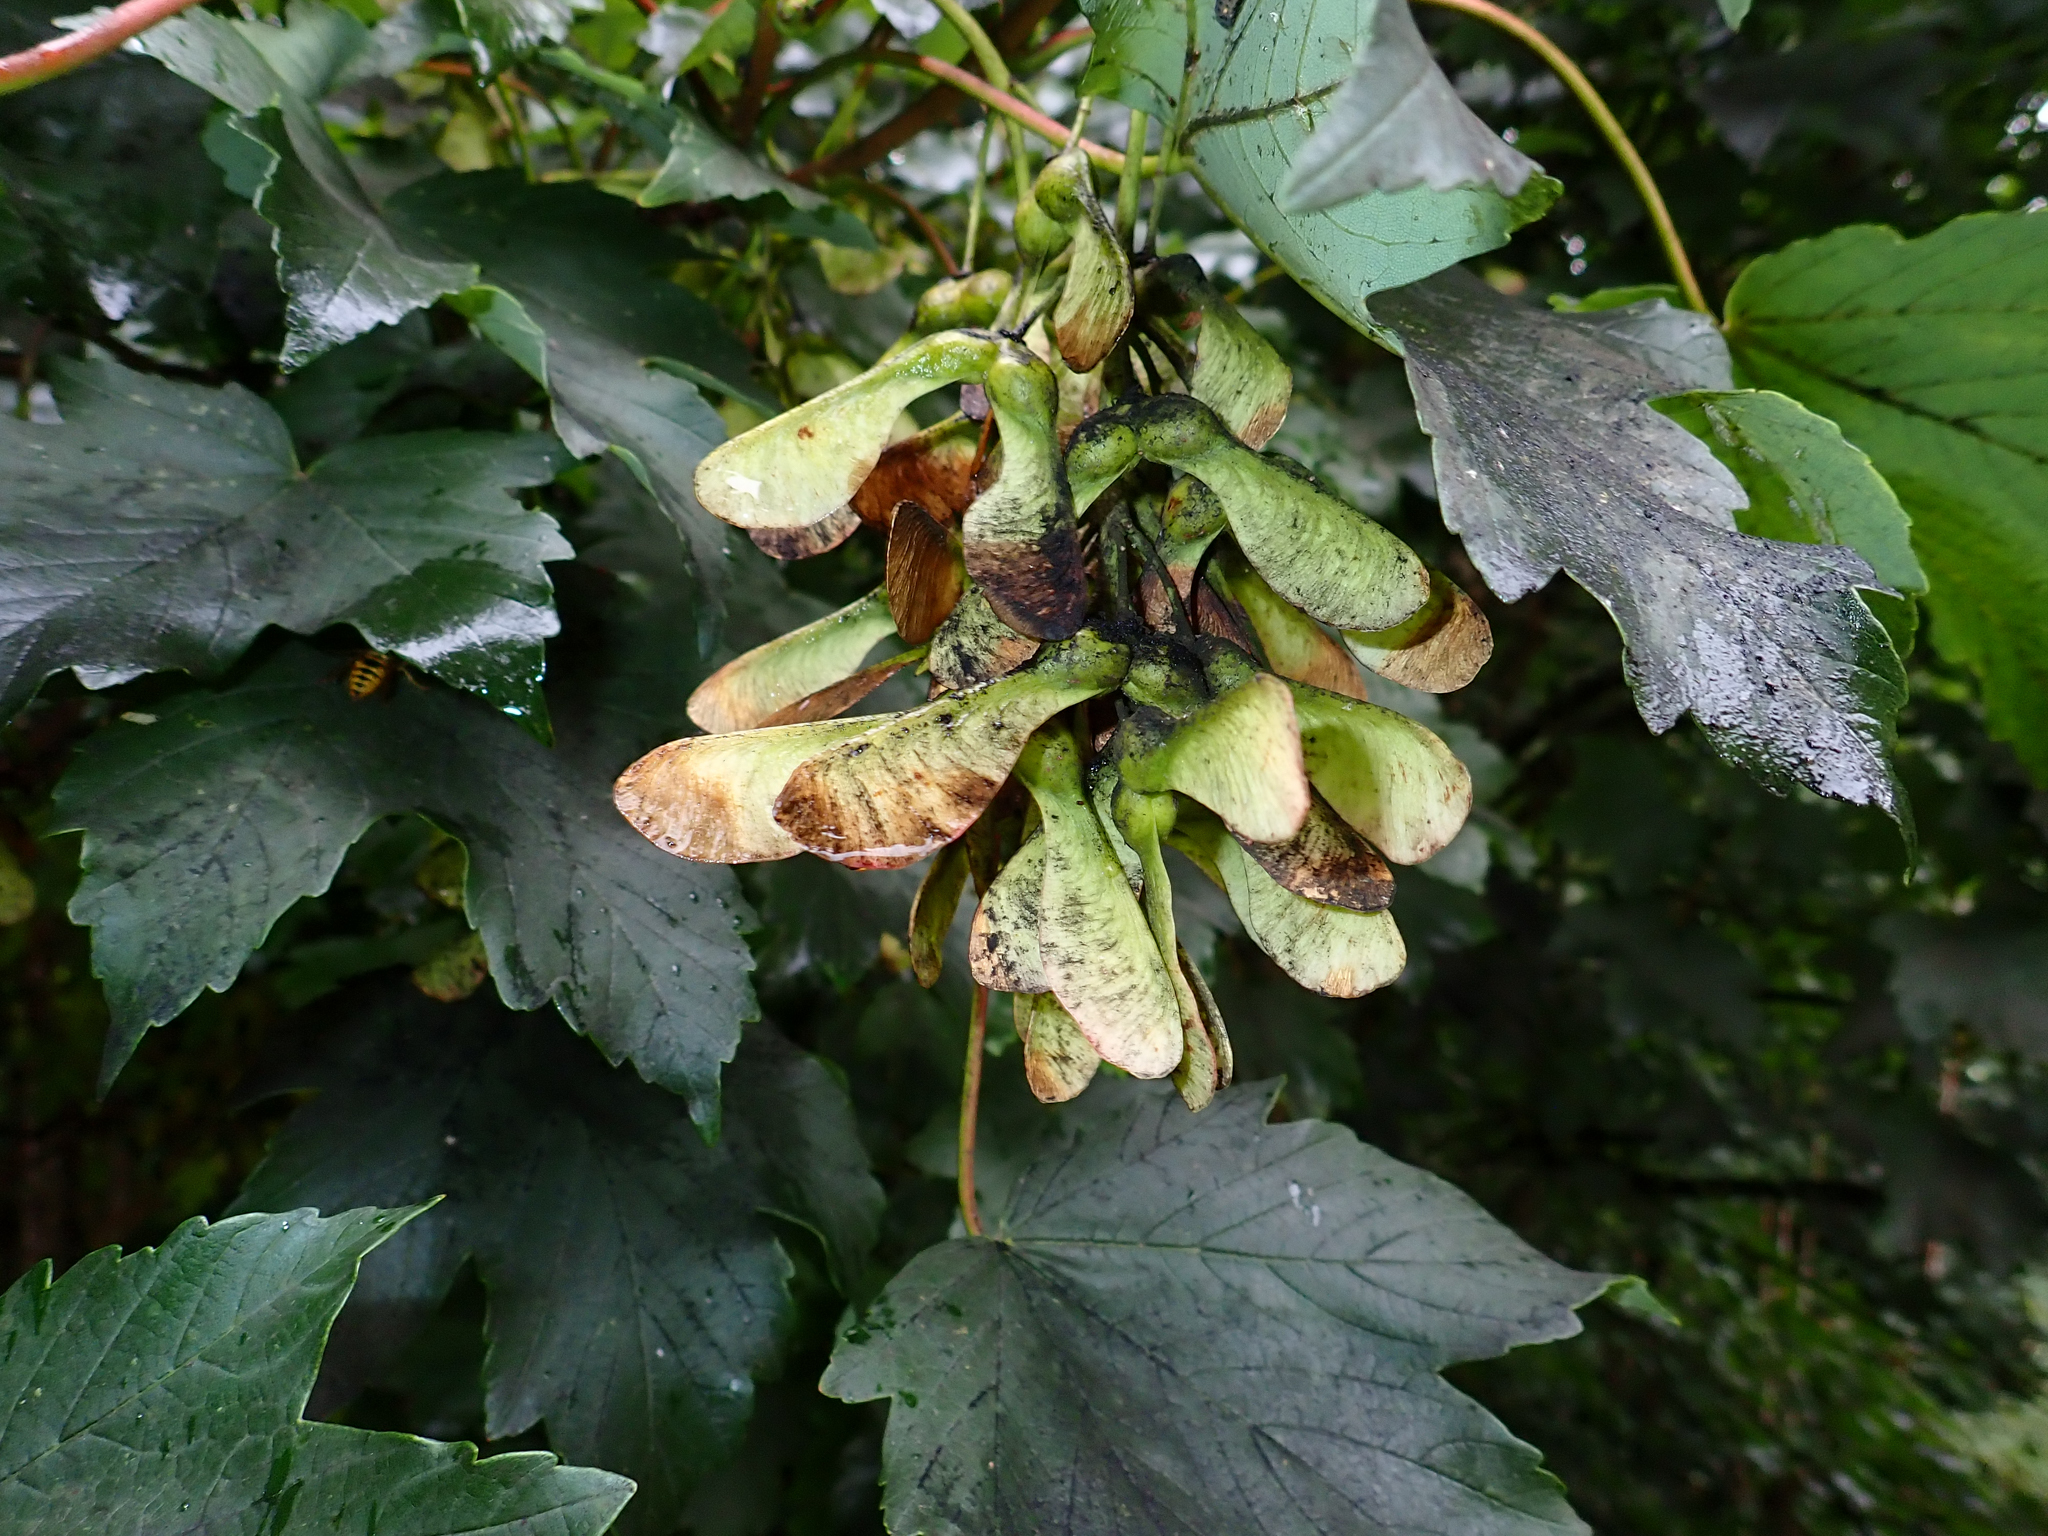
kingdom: Plantae
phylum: Tracheophyta
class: Magnoliopsida
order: Sapindales
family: Sapindaceae
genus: Acer
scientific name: Acer pseudoplatanus
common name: Sycamore
